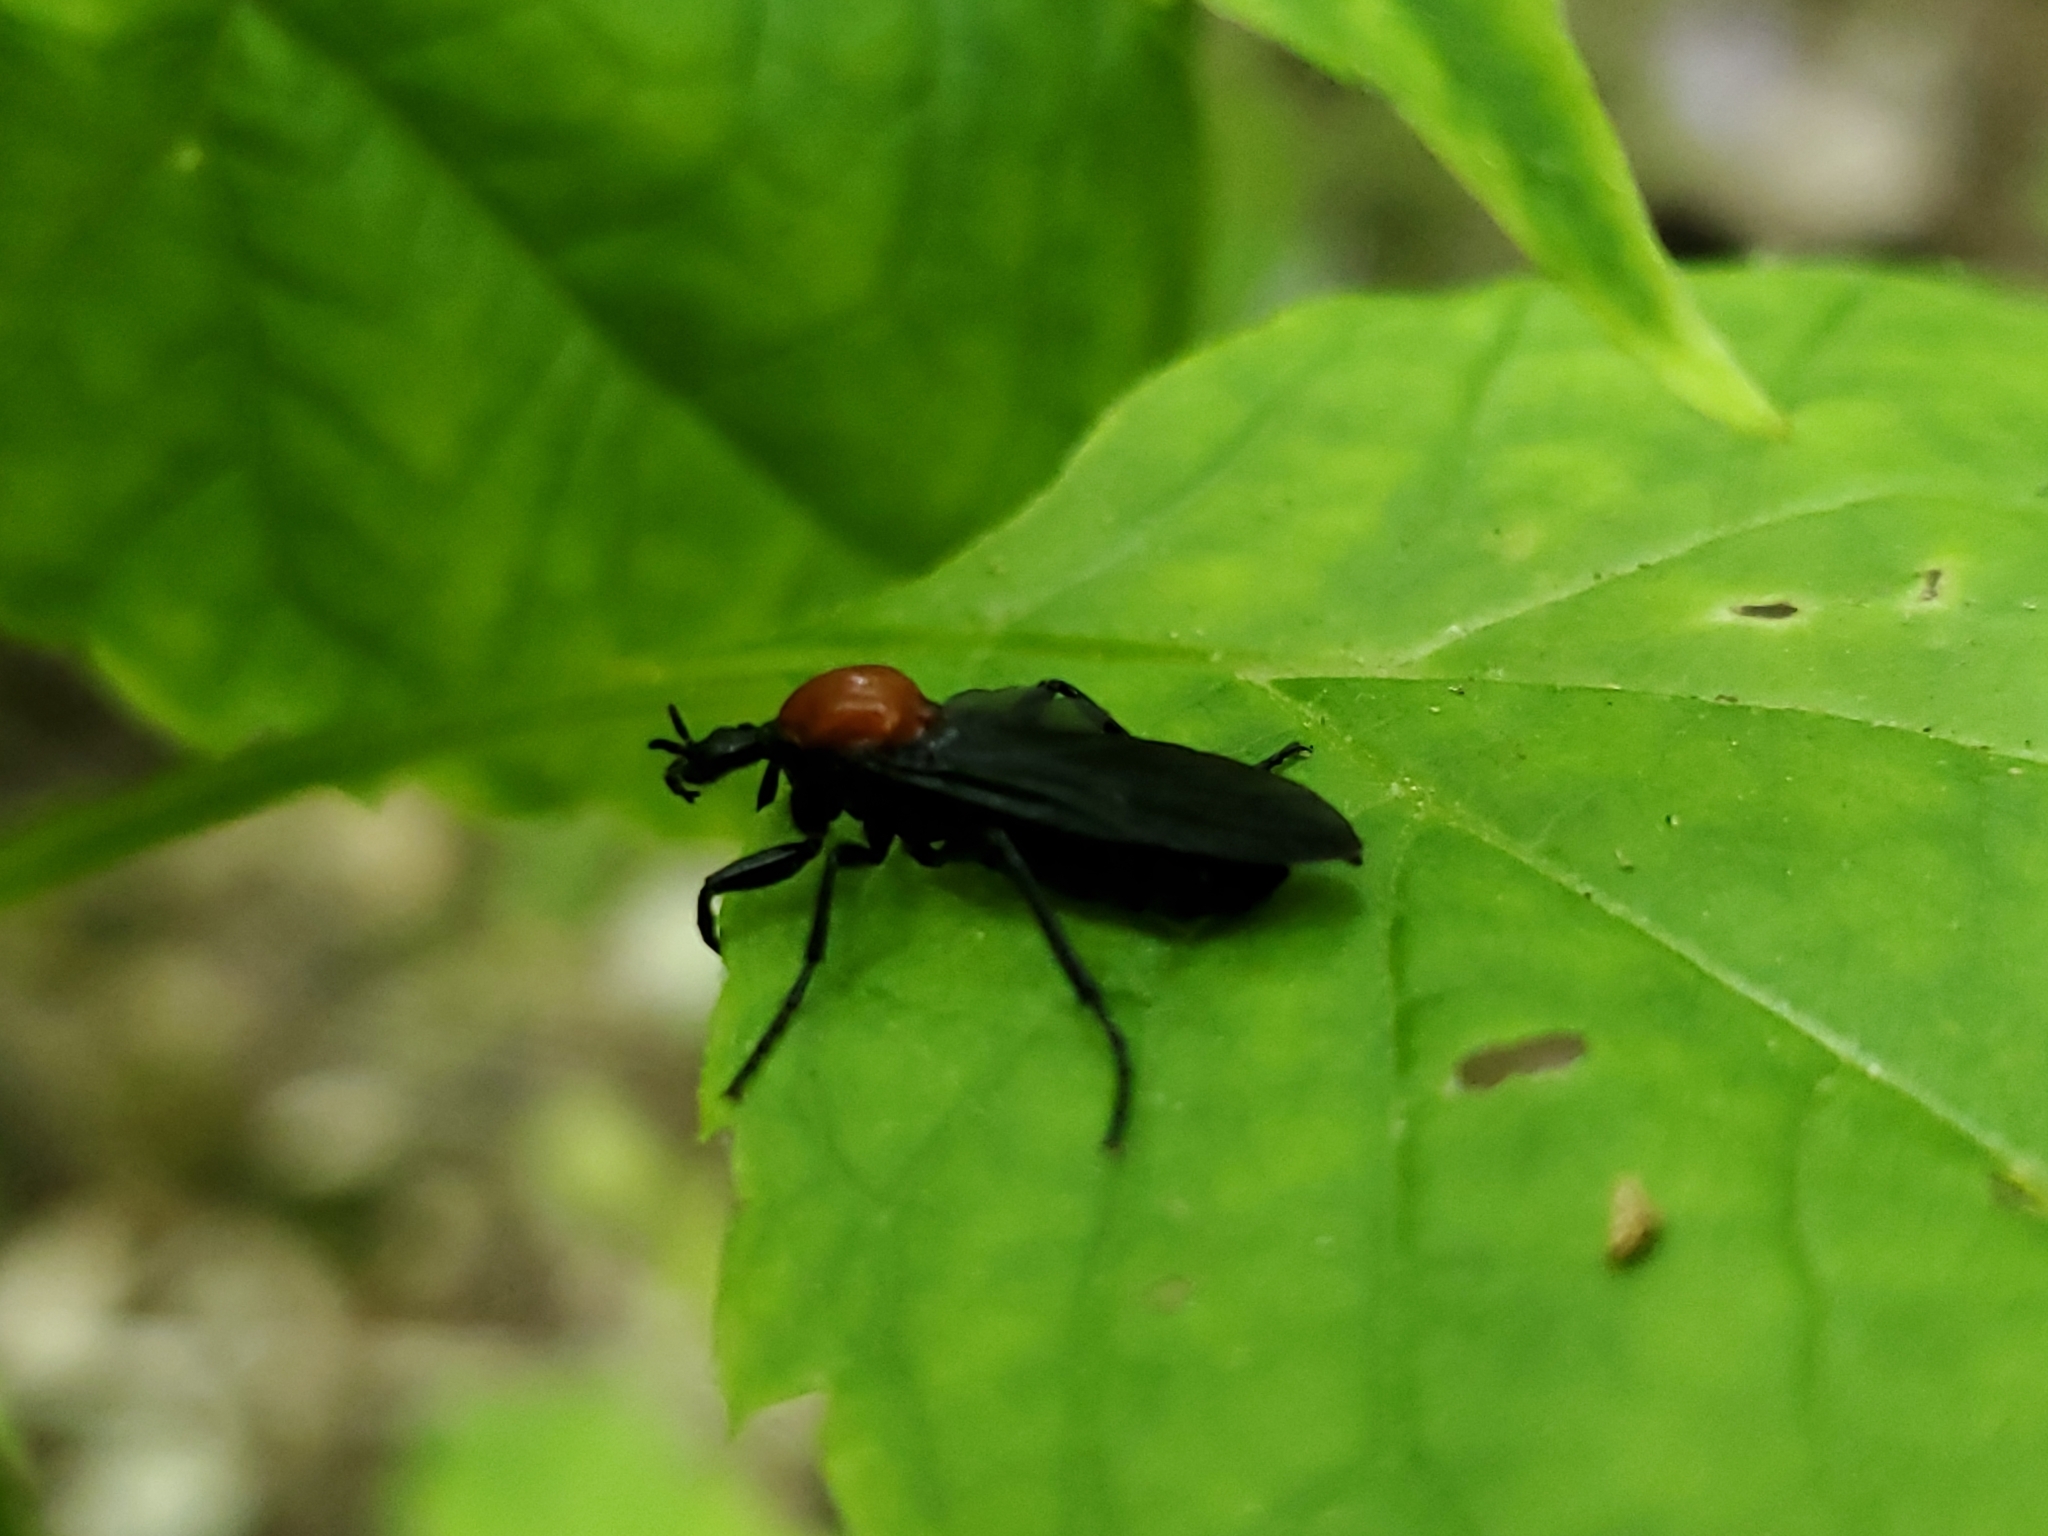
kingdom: Animalia
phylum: Arthropoda
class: Insecta
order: Diptera
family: Bibionidae
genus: Bibio
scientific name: Bibio superfluus
